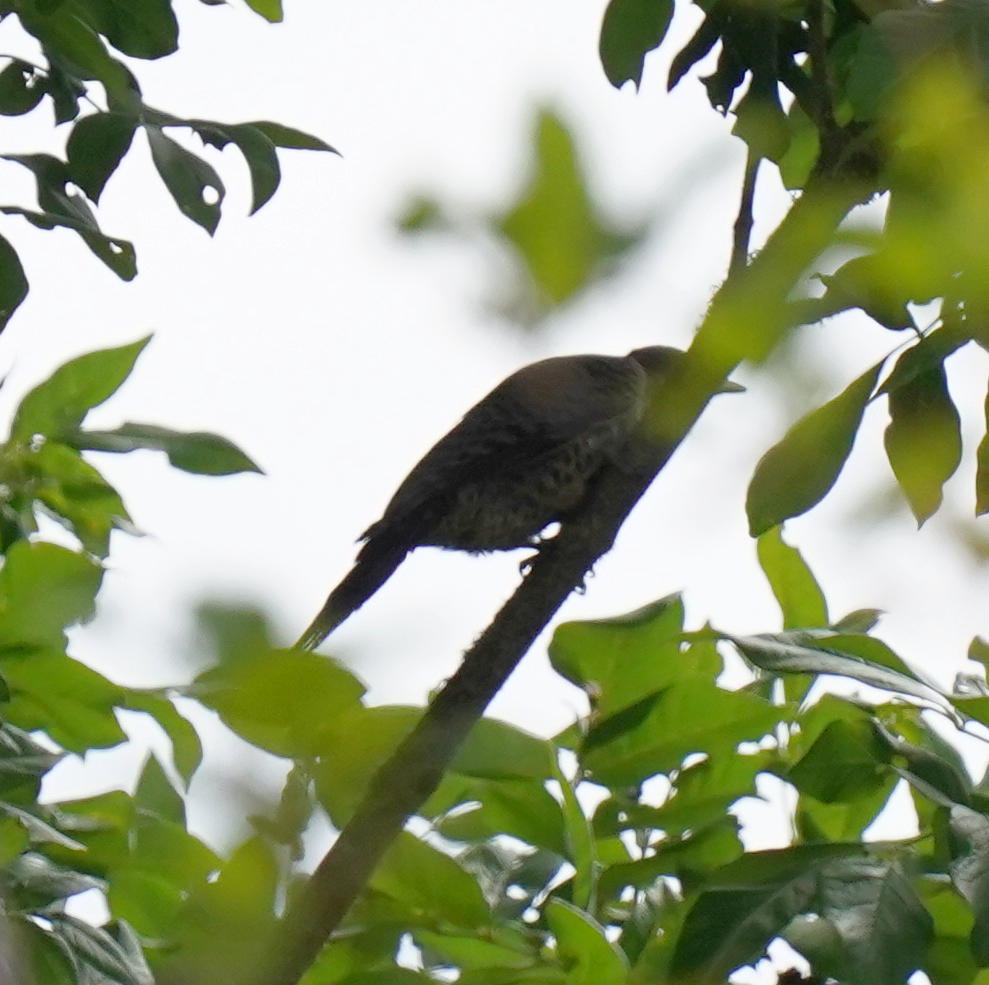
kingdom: Animalia
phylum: Chordata
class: Aves
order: Piciformes
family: Picidae
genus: Colaptes
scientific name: Colaptes auratus
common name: Northern flicker
